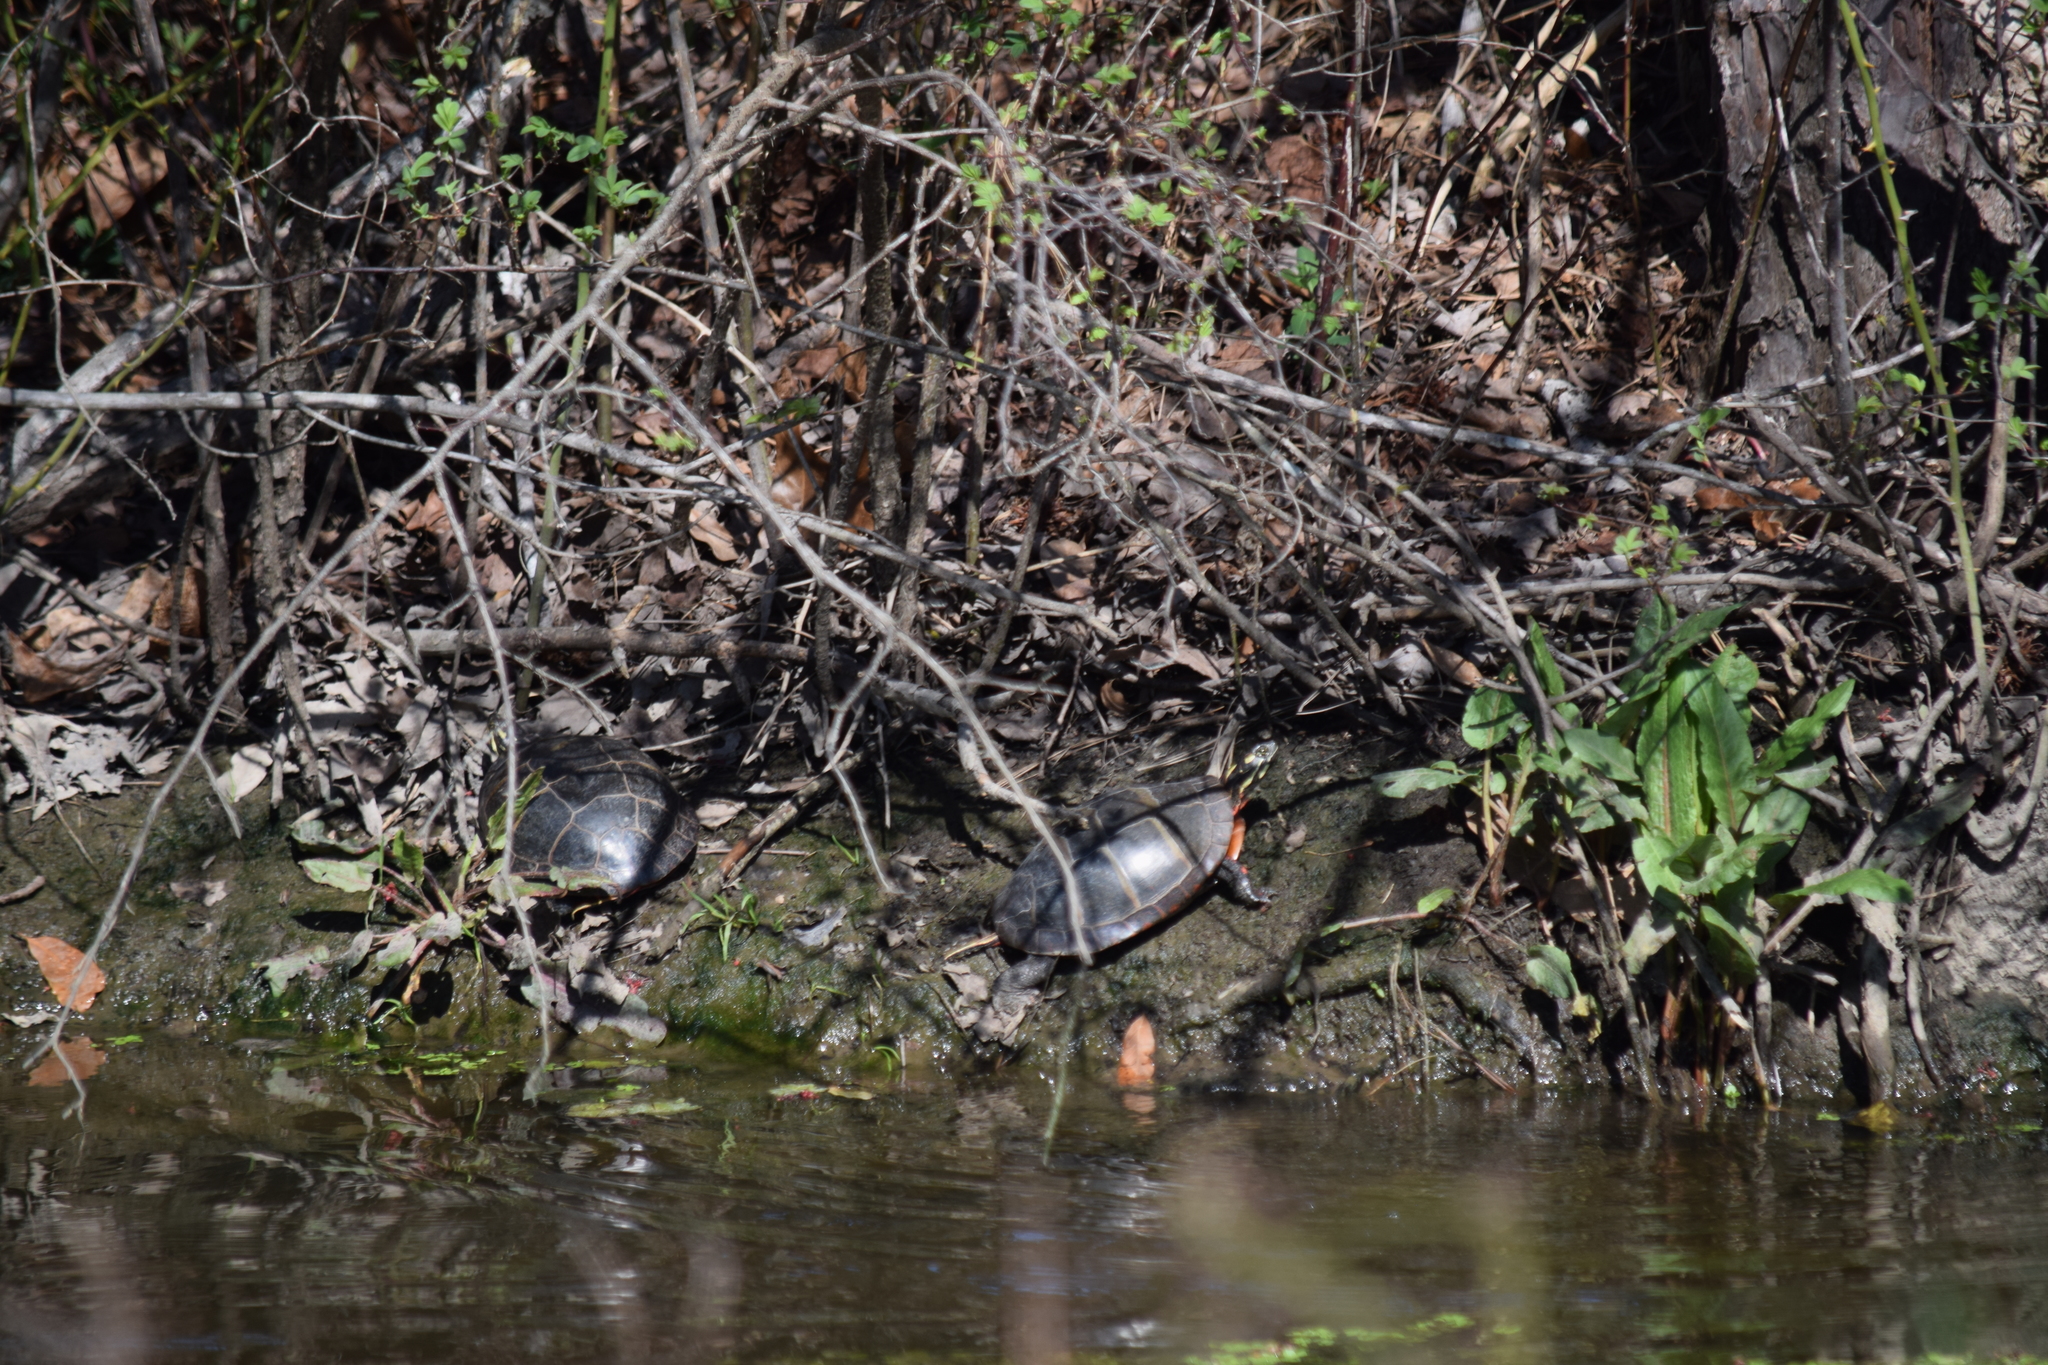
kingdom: Animalia
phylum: Chordata
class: Testudines
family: Emydidae
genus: Chrysemys
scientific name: Chrysemys picta
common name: Painted turtle
